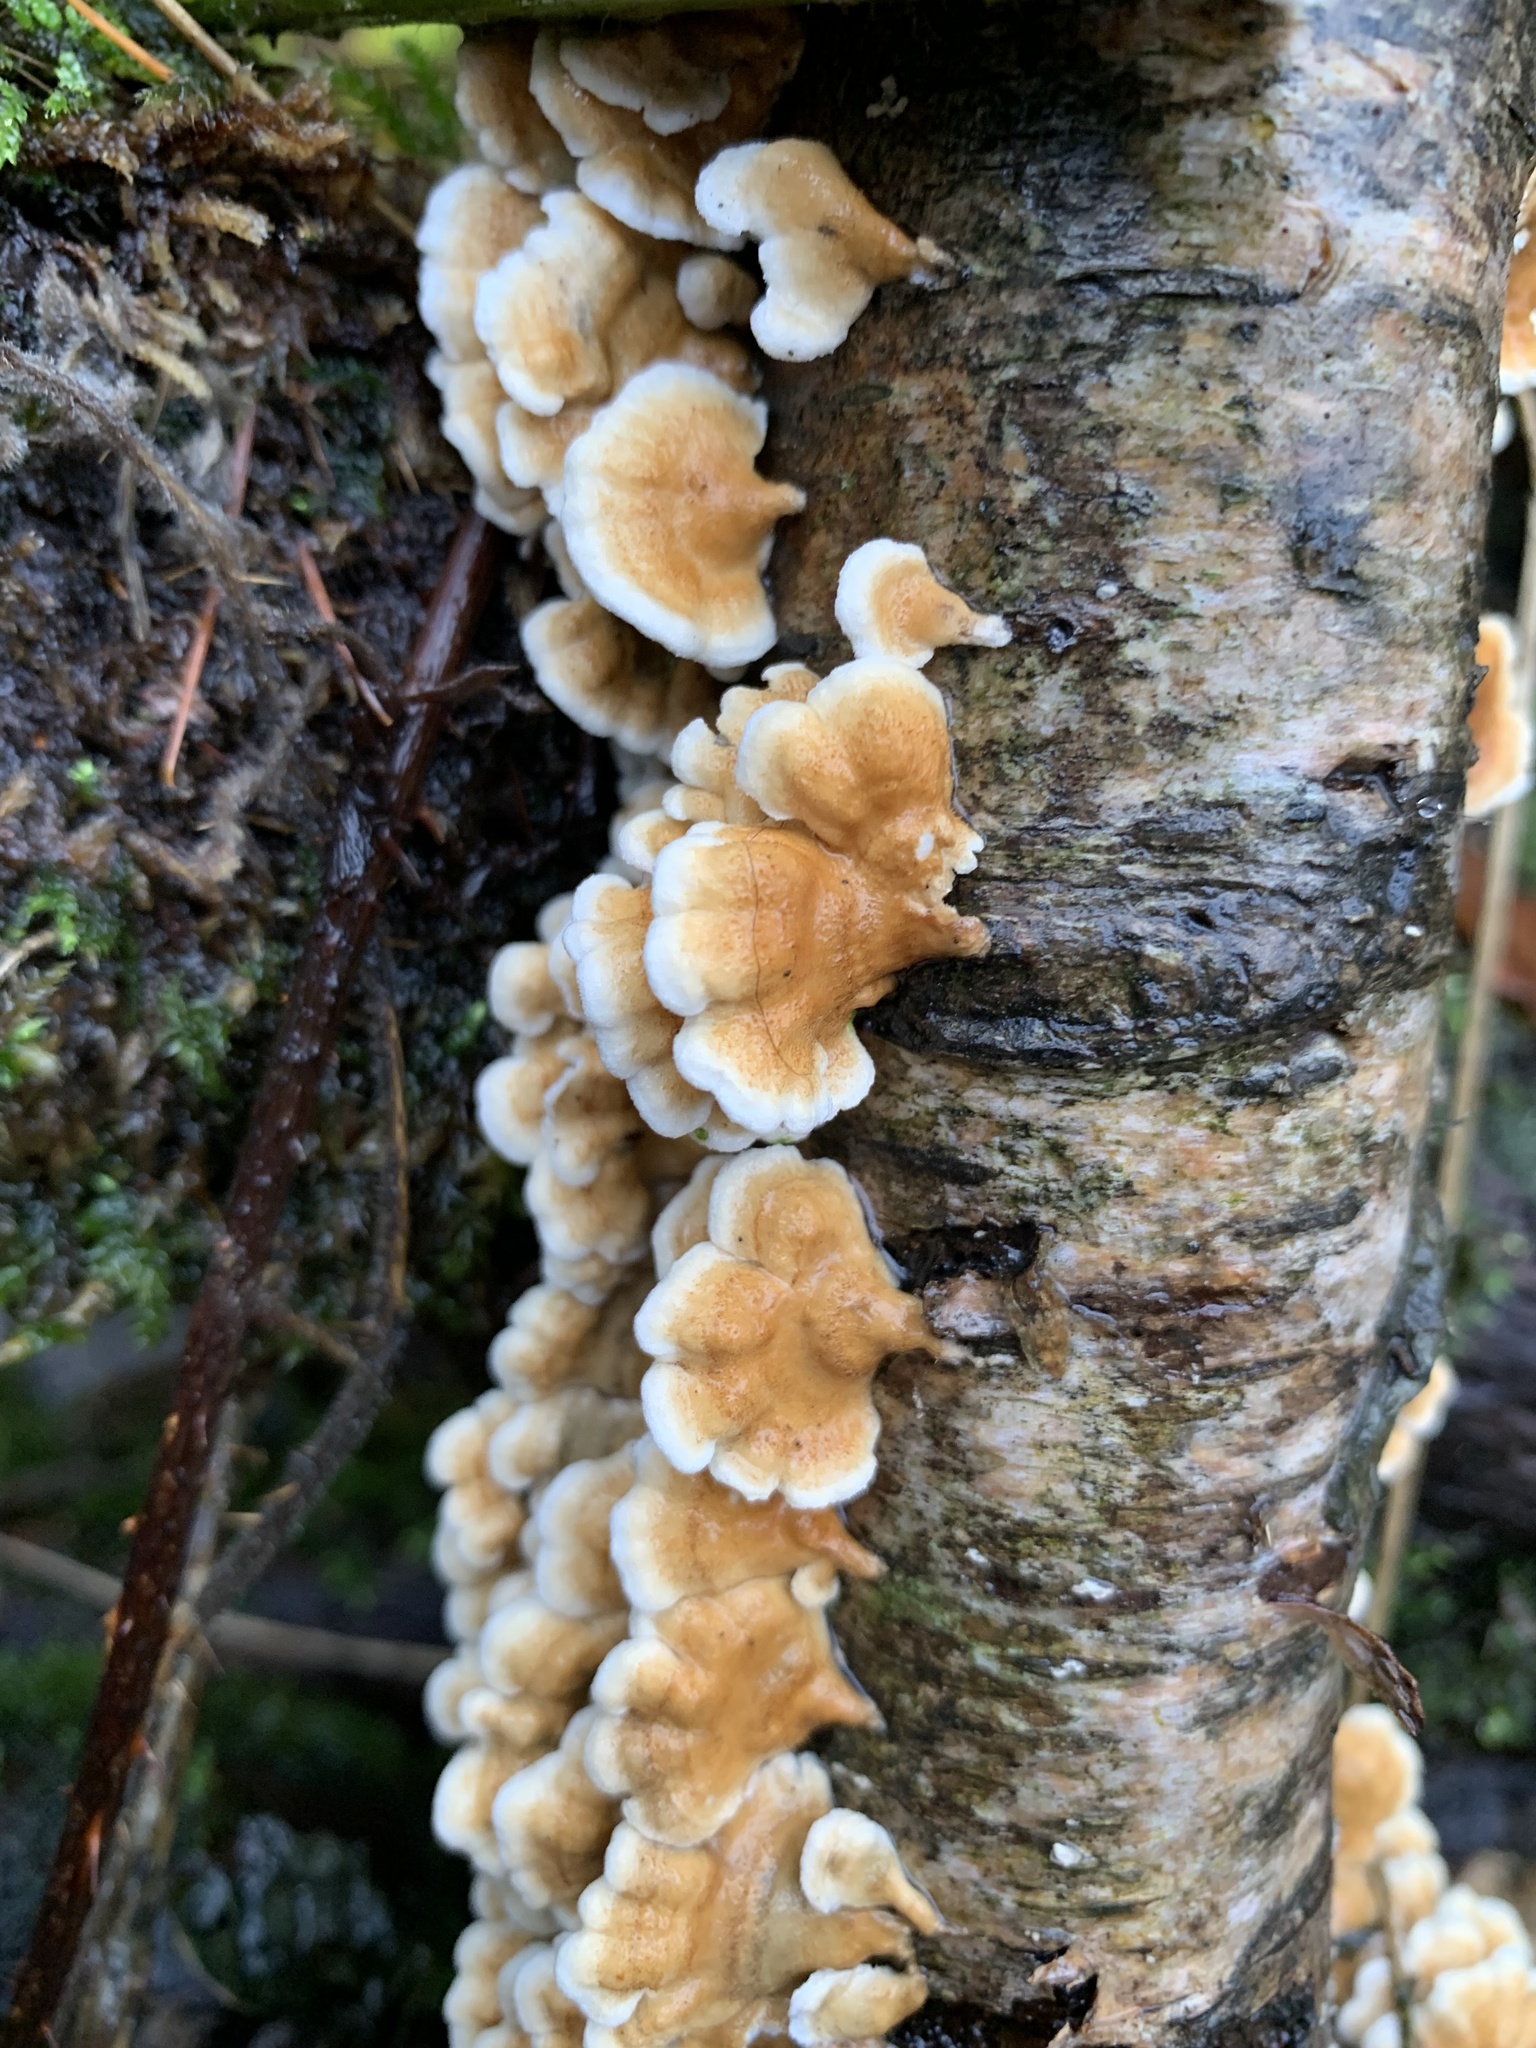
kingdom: Fungi
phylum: Basidiomycota
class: Agaricomycetes
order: Amylocorticiales
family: Amylocorticiaceae
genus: Plicaturopsis
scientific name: Plicaturopsis crispa
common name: Crimped gill
